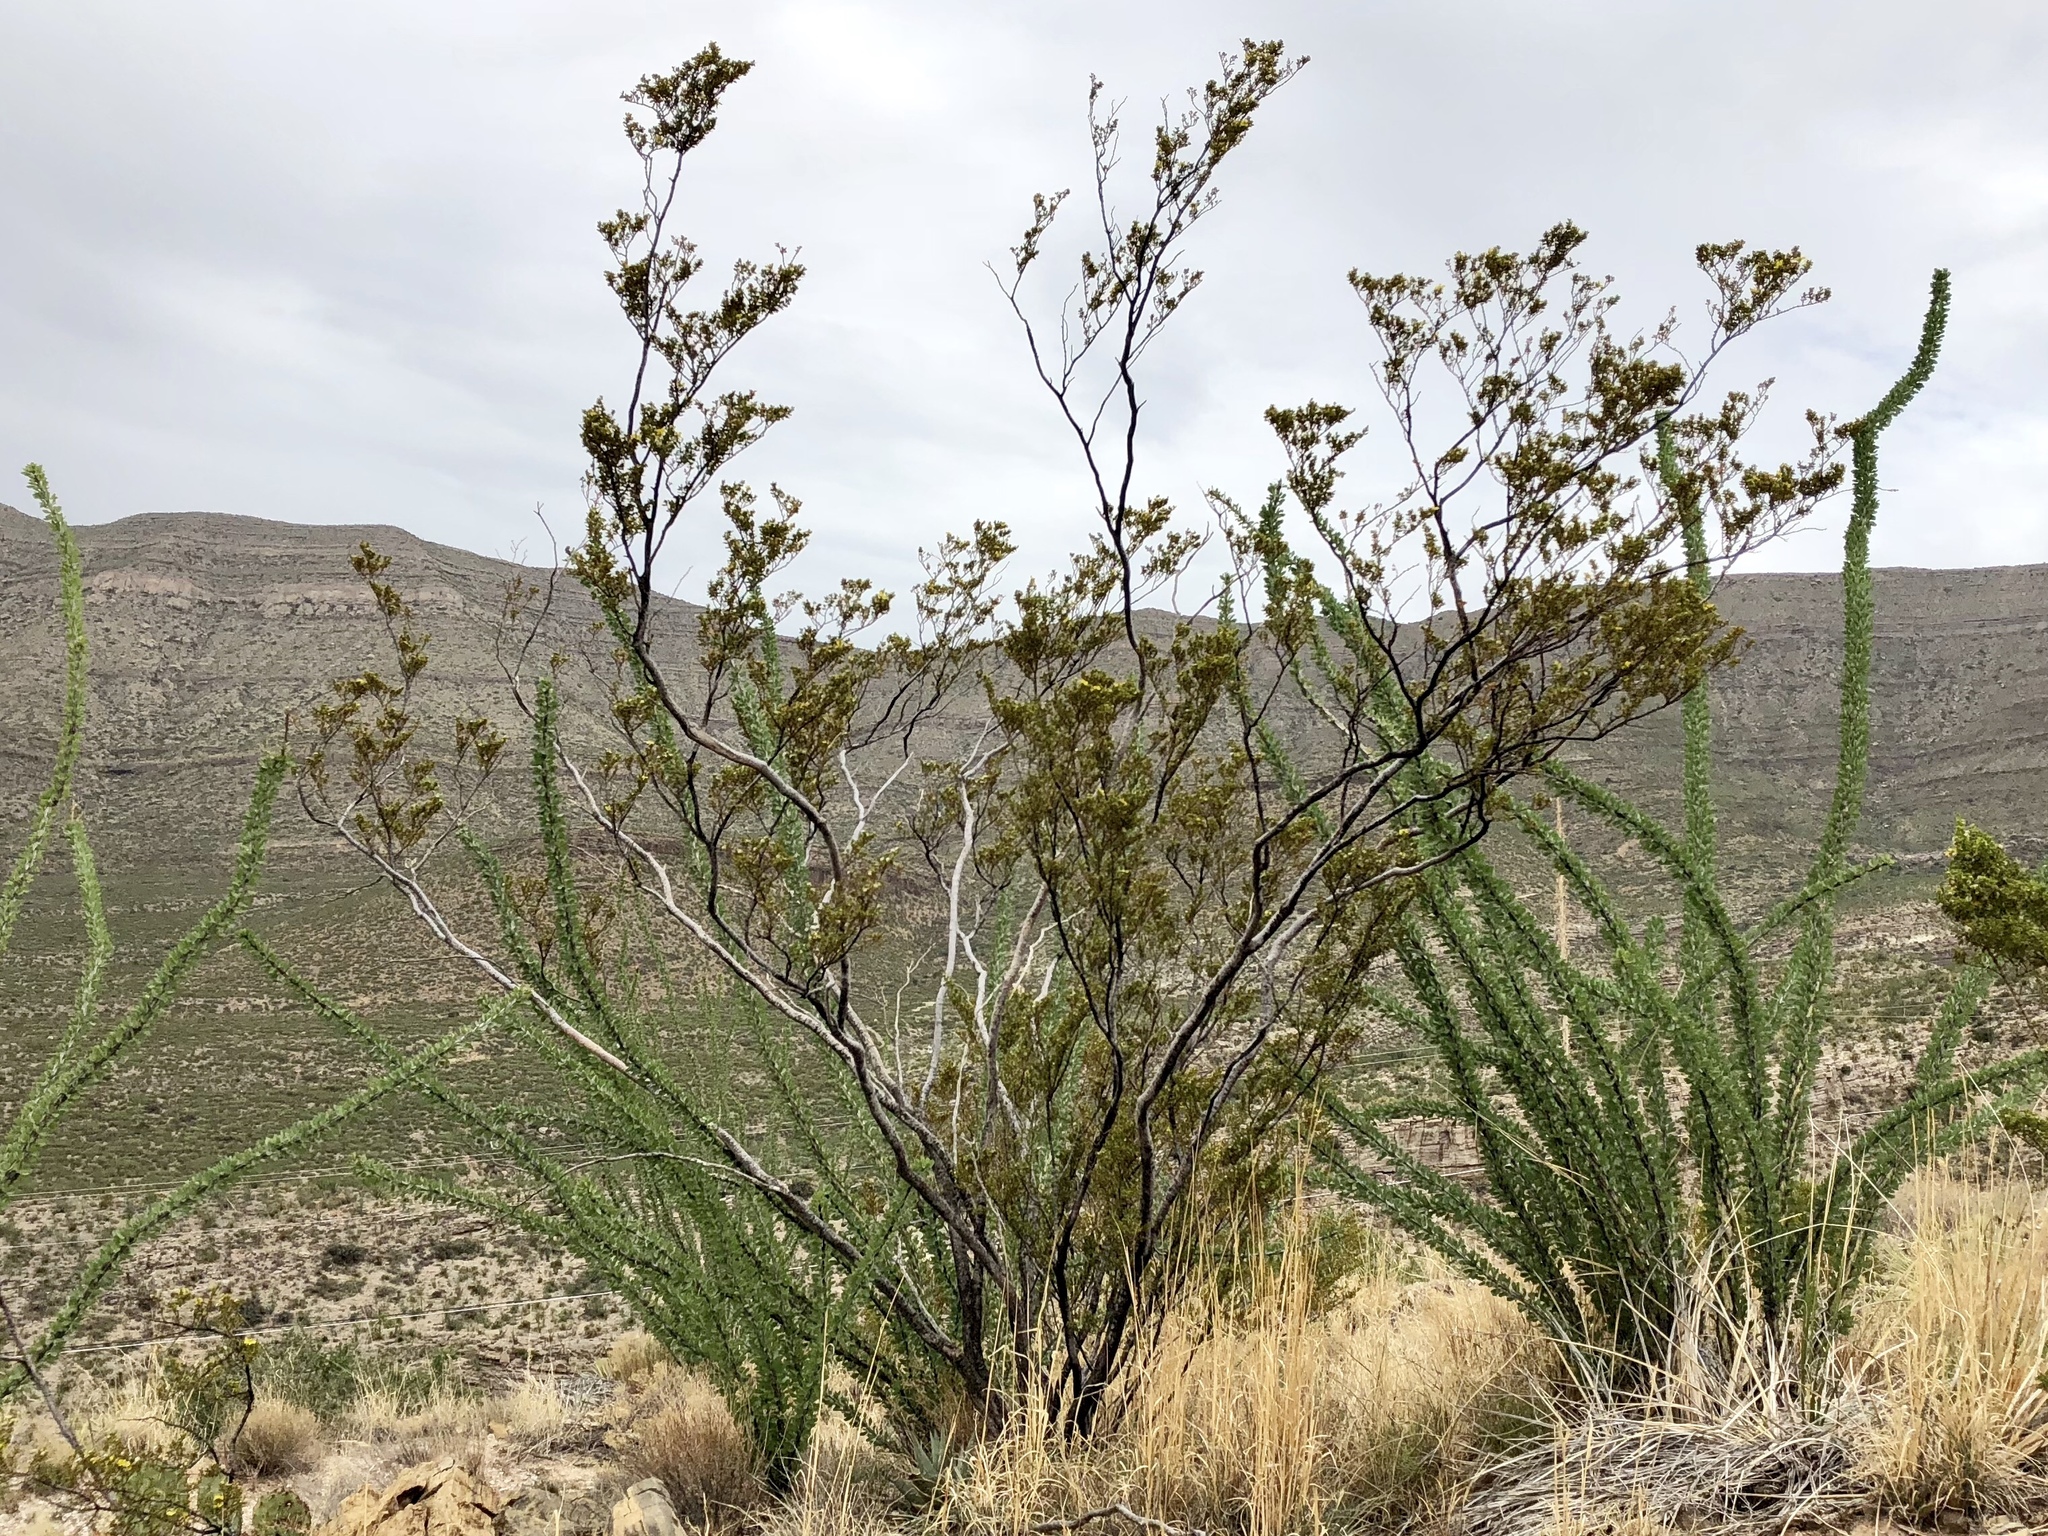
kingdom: Plantae
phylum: Tracheophyta
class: Magnoliopsida
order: Zygophyllales
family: Zygophyllaceae
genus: Larrea
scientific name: Larrea tridentata
